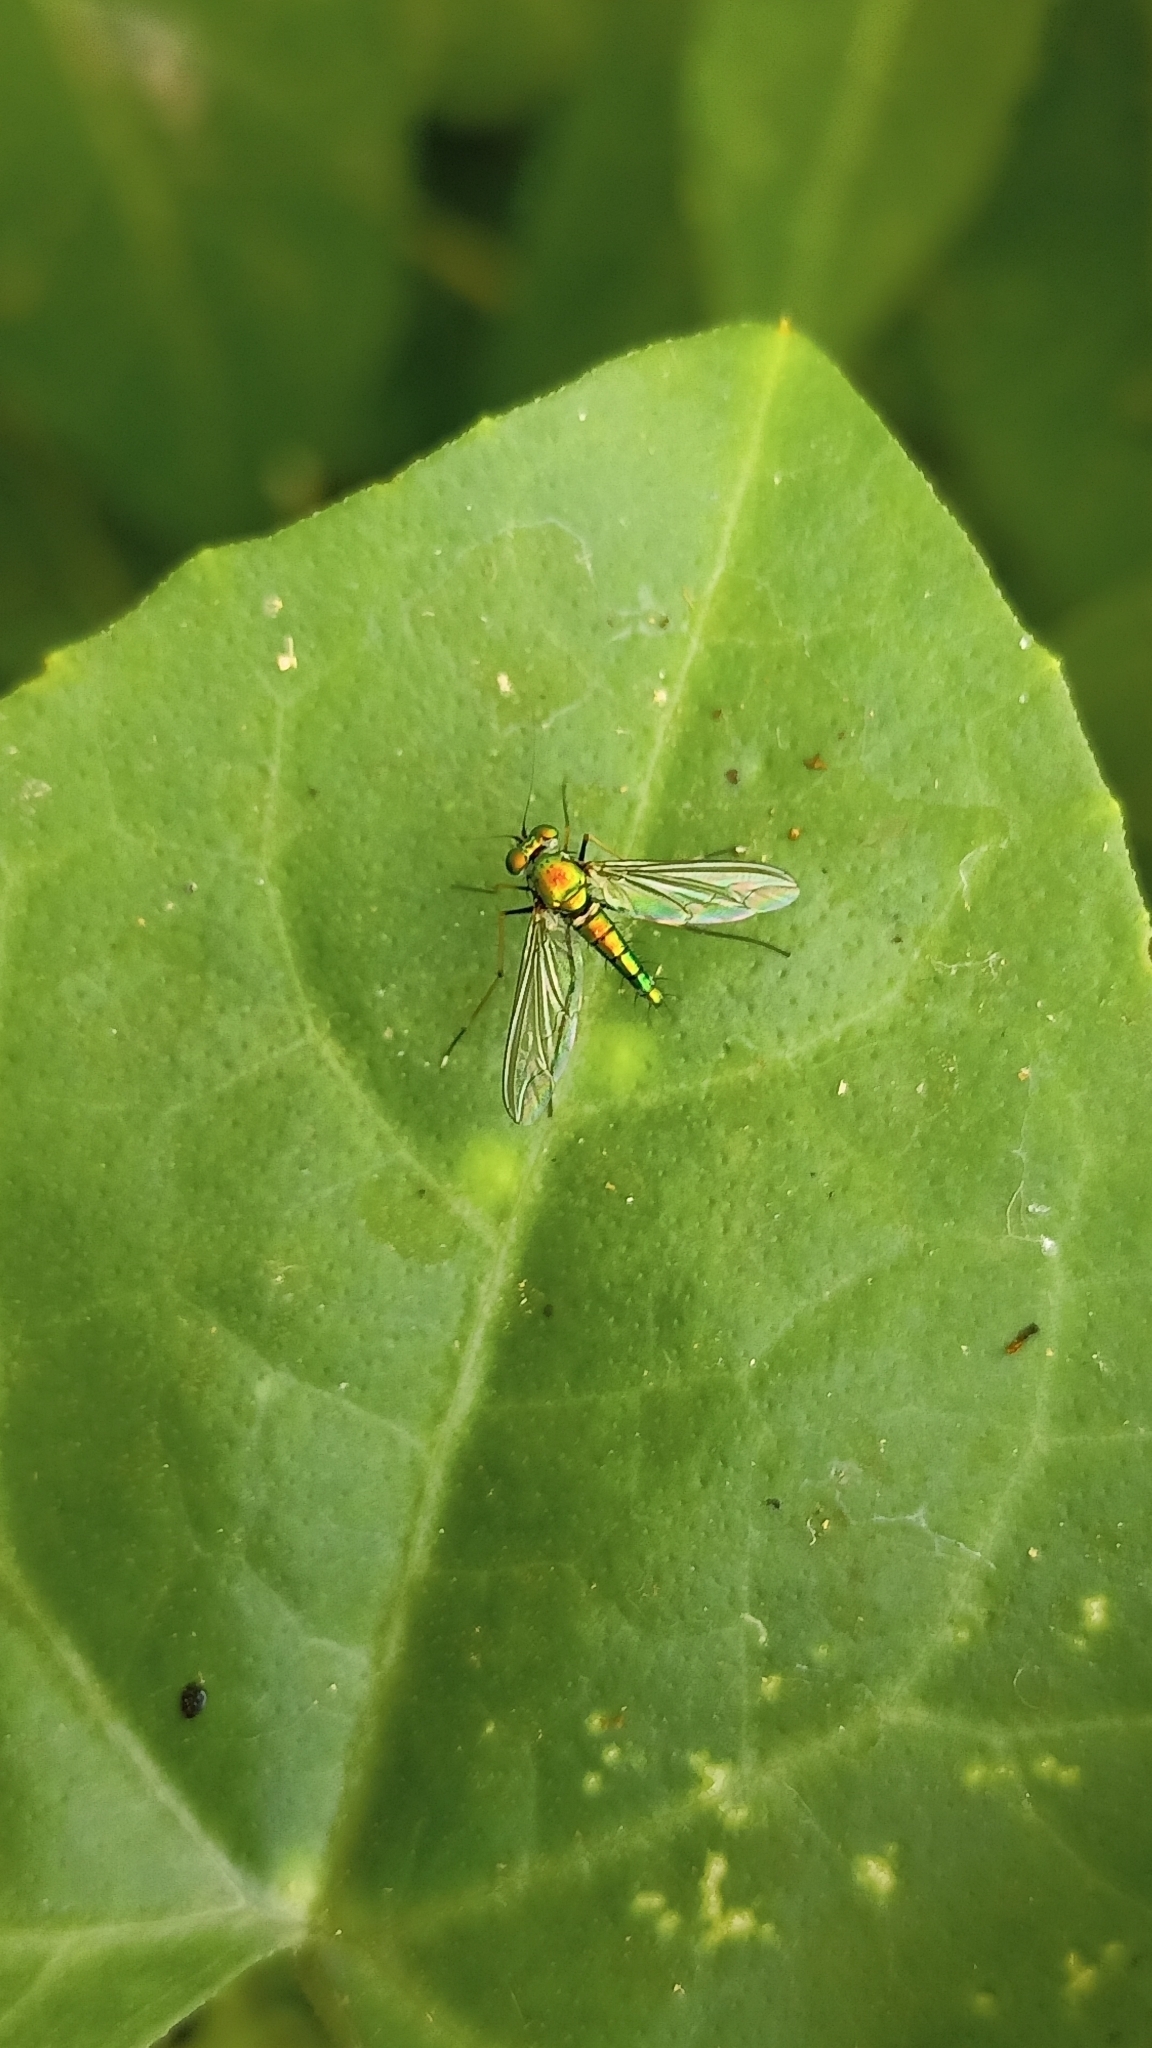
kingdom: Animalia
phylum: Arthropoda
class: Insecta
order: Diptera
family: Dolichopodidae
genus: Chrysosoma
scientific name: Chrysosoma leucopogon
